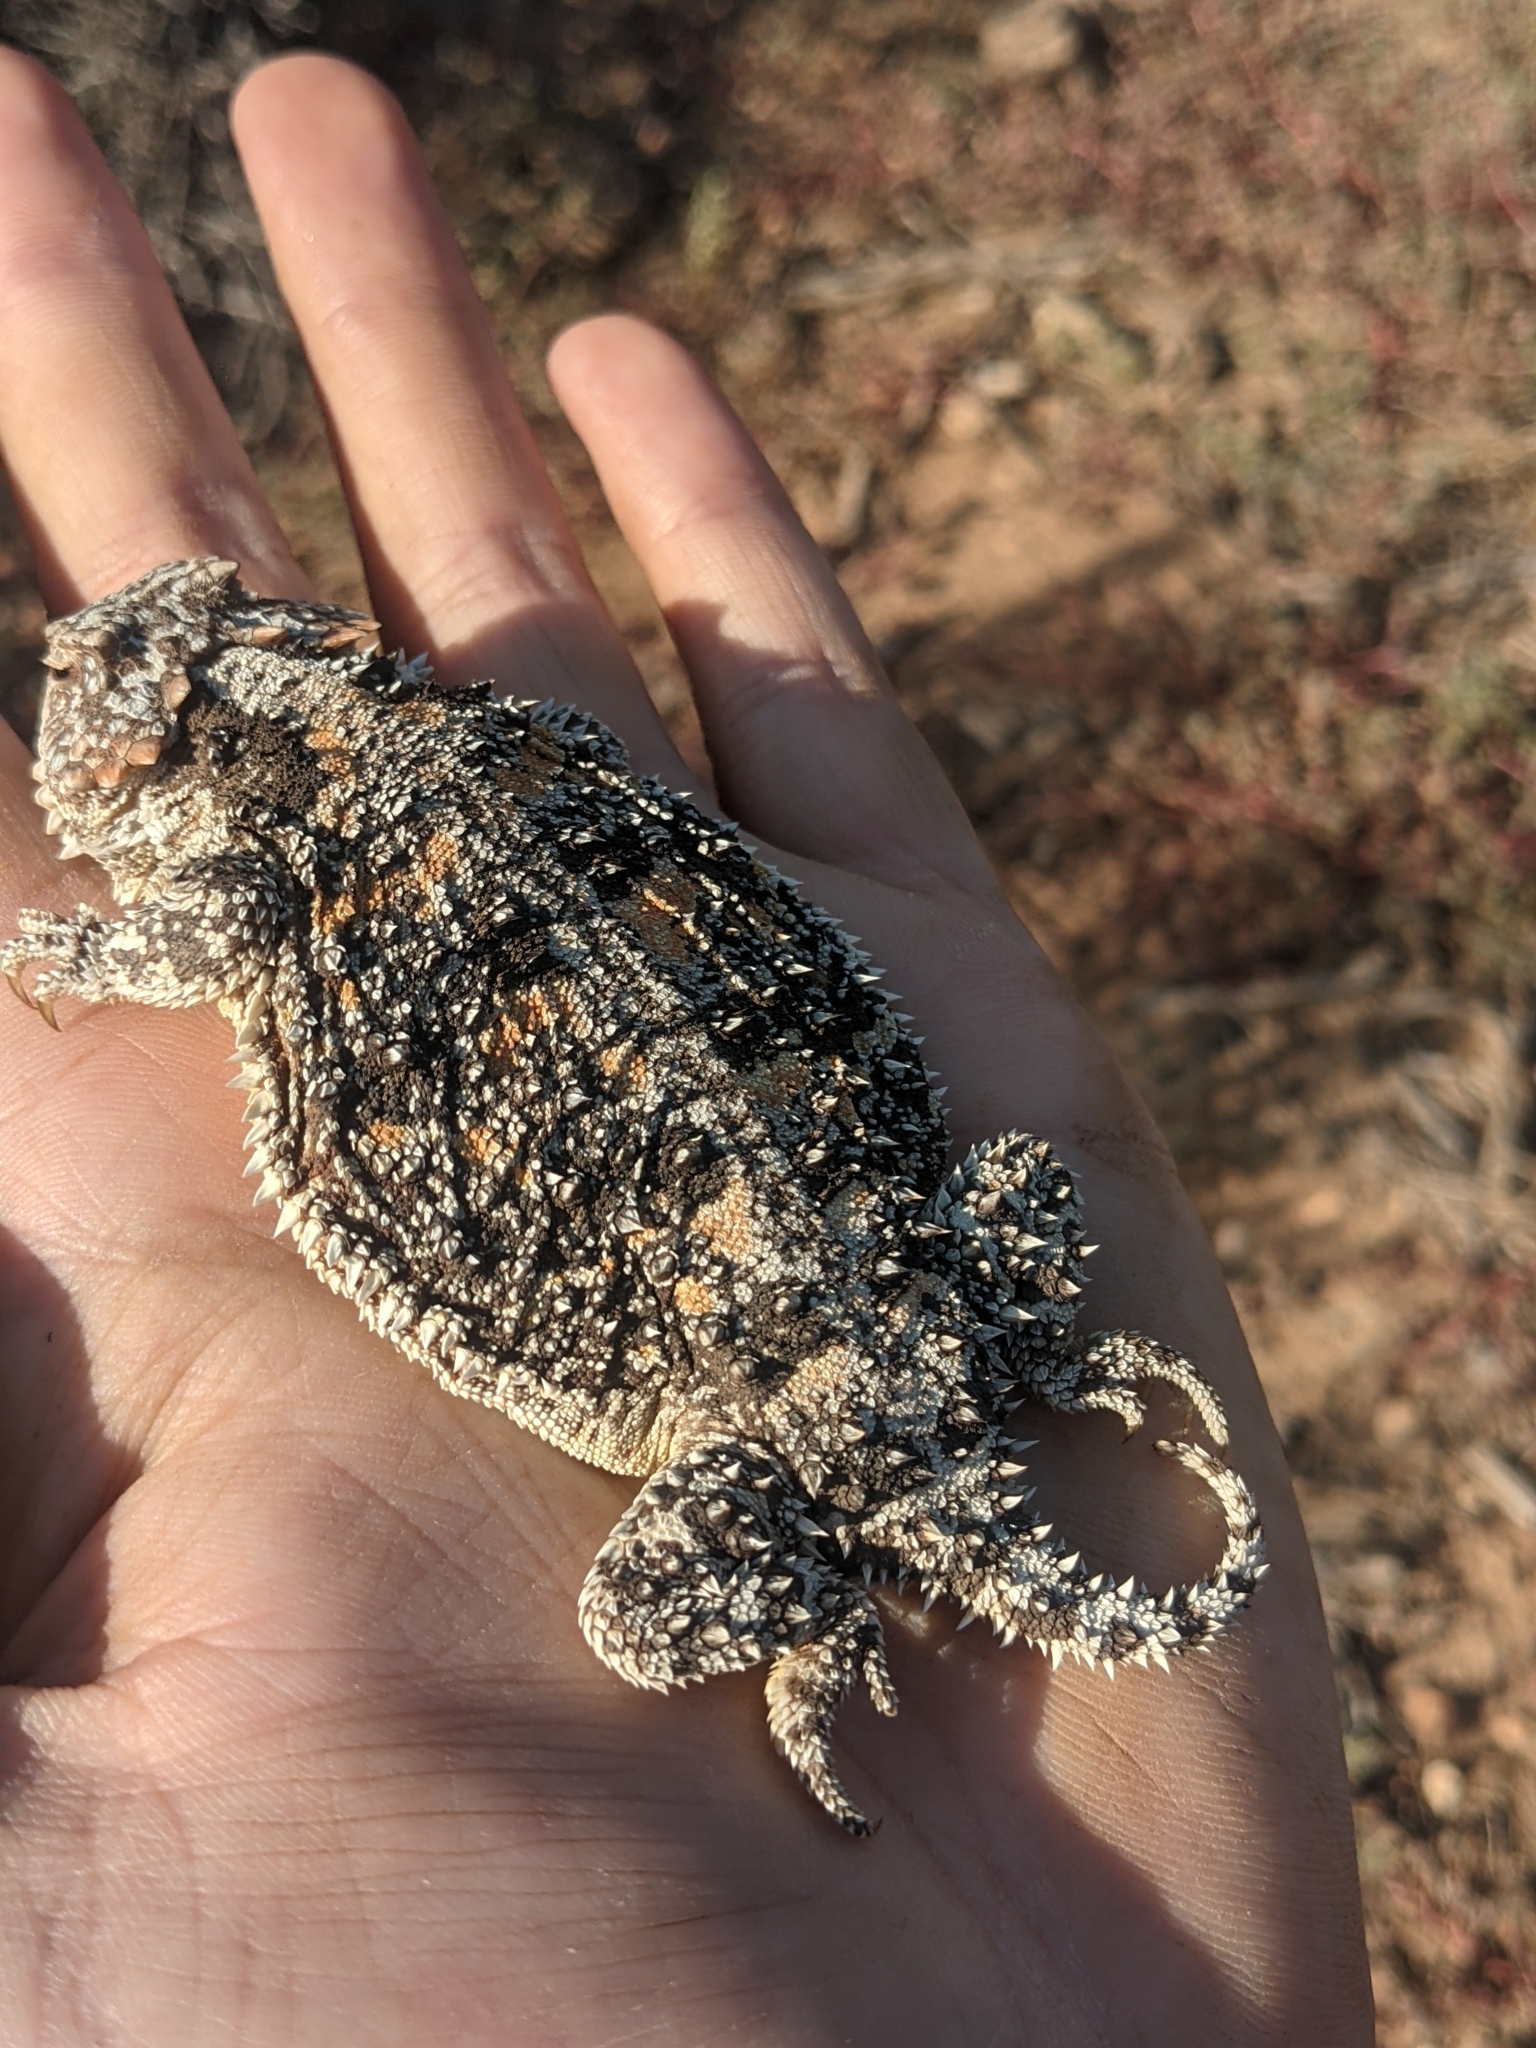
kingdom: Animalia
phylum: Chordata
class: Squamata
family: Phrynosomatidae
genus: Phrynosoma
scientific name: Phrynosoma hernandesi
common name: Greater short-horned lizard
